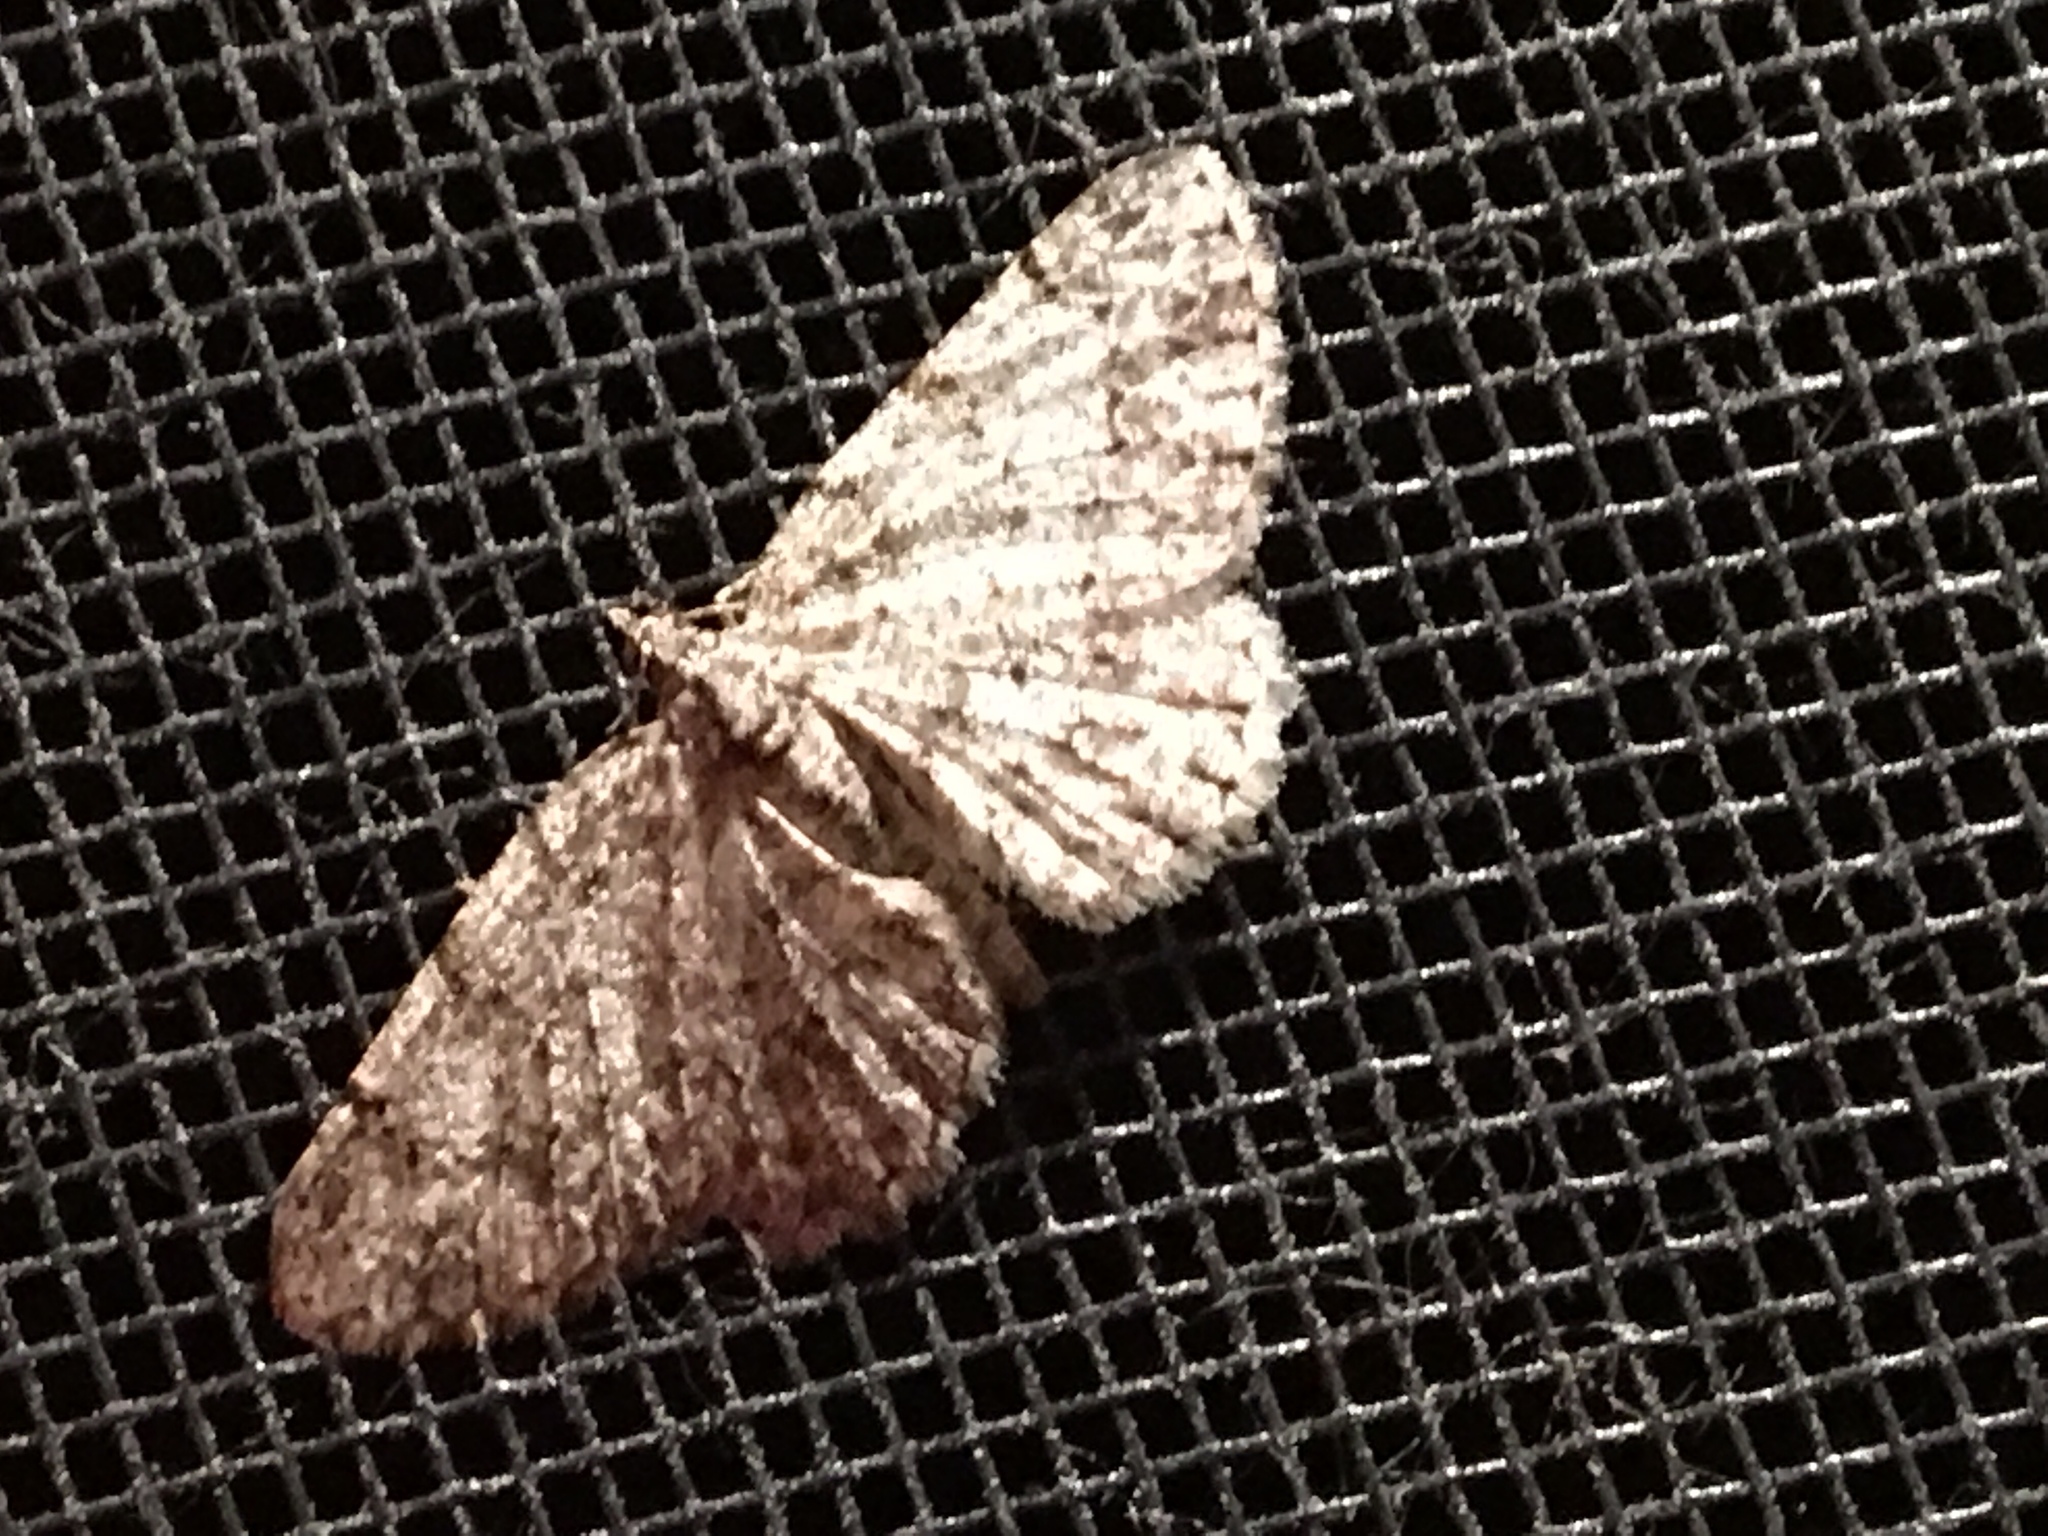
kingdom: Animalia
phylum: Arthropoda
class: Insecta
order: Lepidoptera
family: Geometridae
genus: Protoboarmia
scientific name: Protoboarmia porcelaria
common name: Porcelain gray
